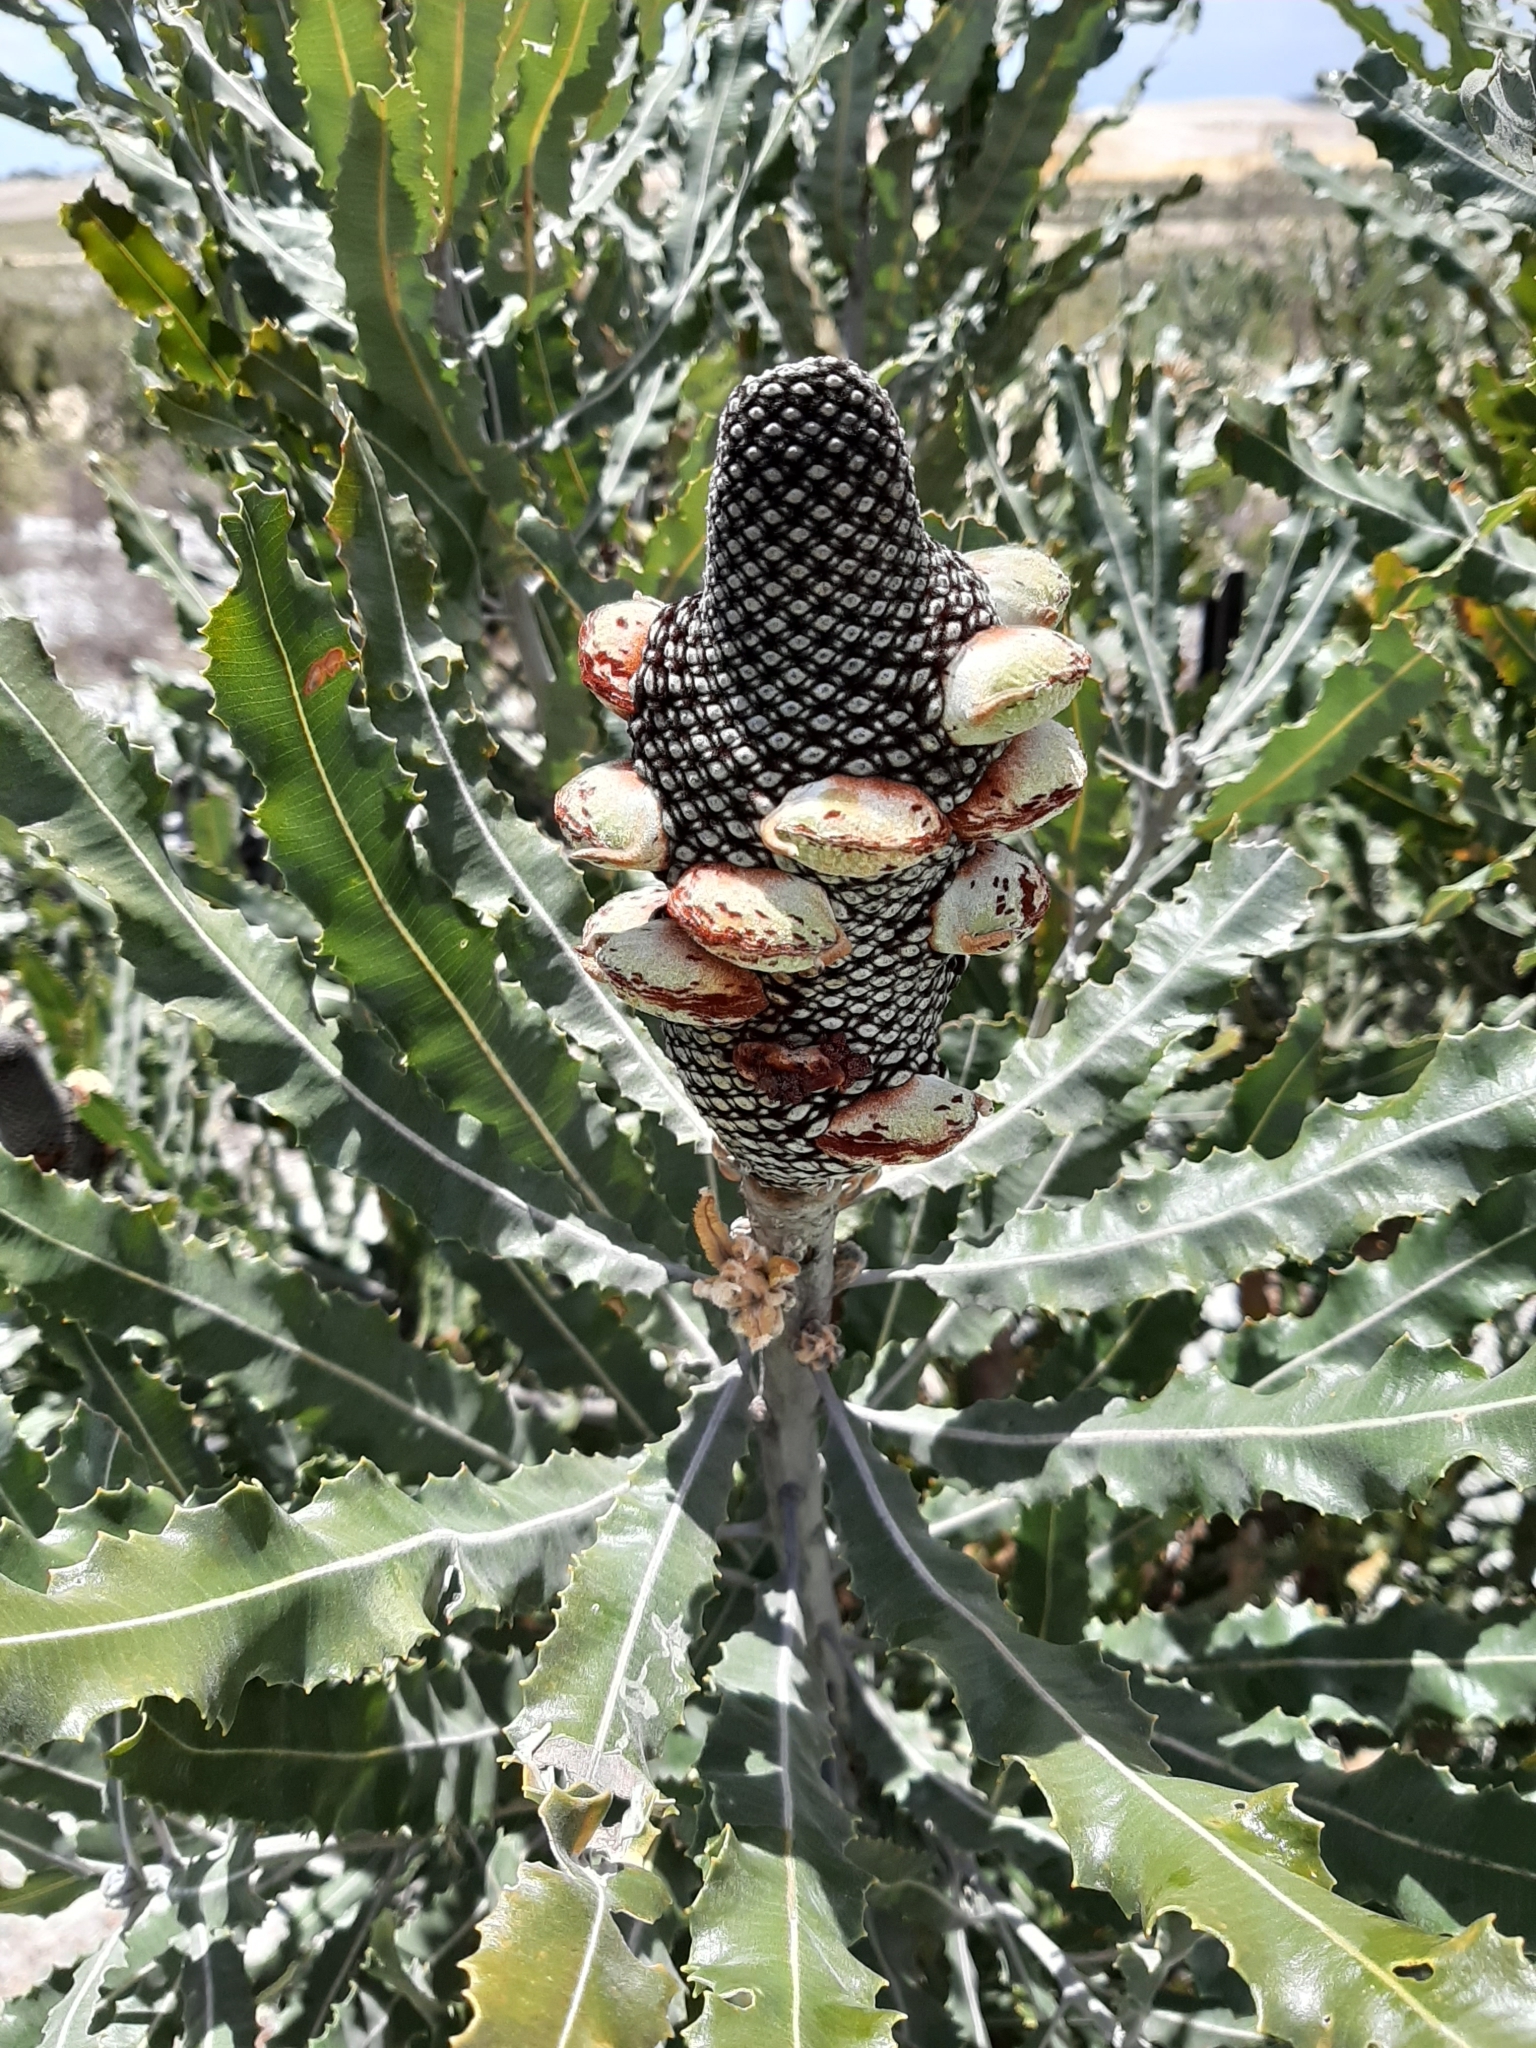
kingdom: Plantae
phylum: Tracheophyta
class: Magnoliopsida
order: Proteales
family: Proteaceae
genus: Banksia
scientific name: Banksia menziesii
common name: Menzie's banksia
